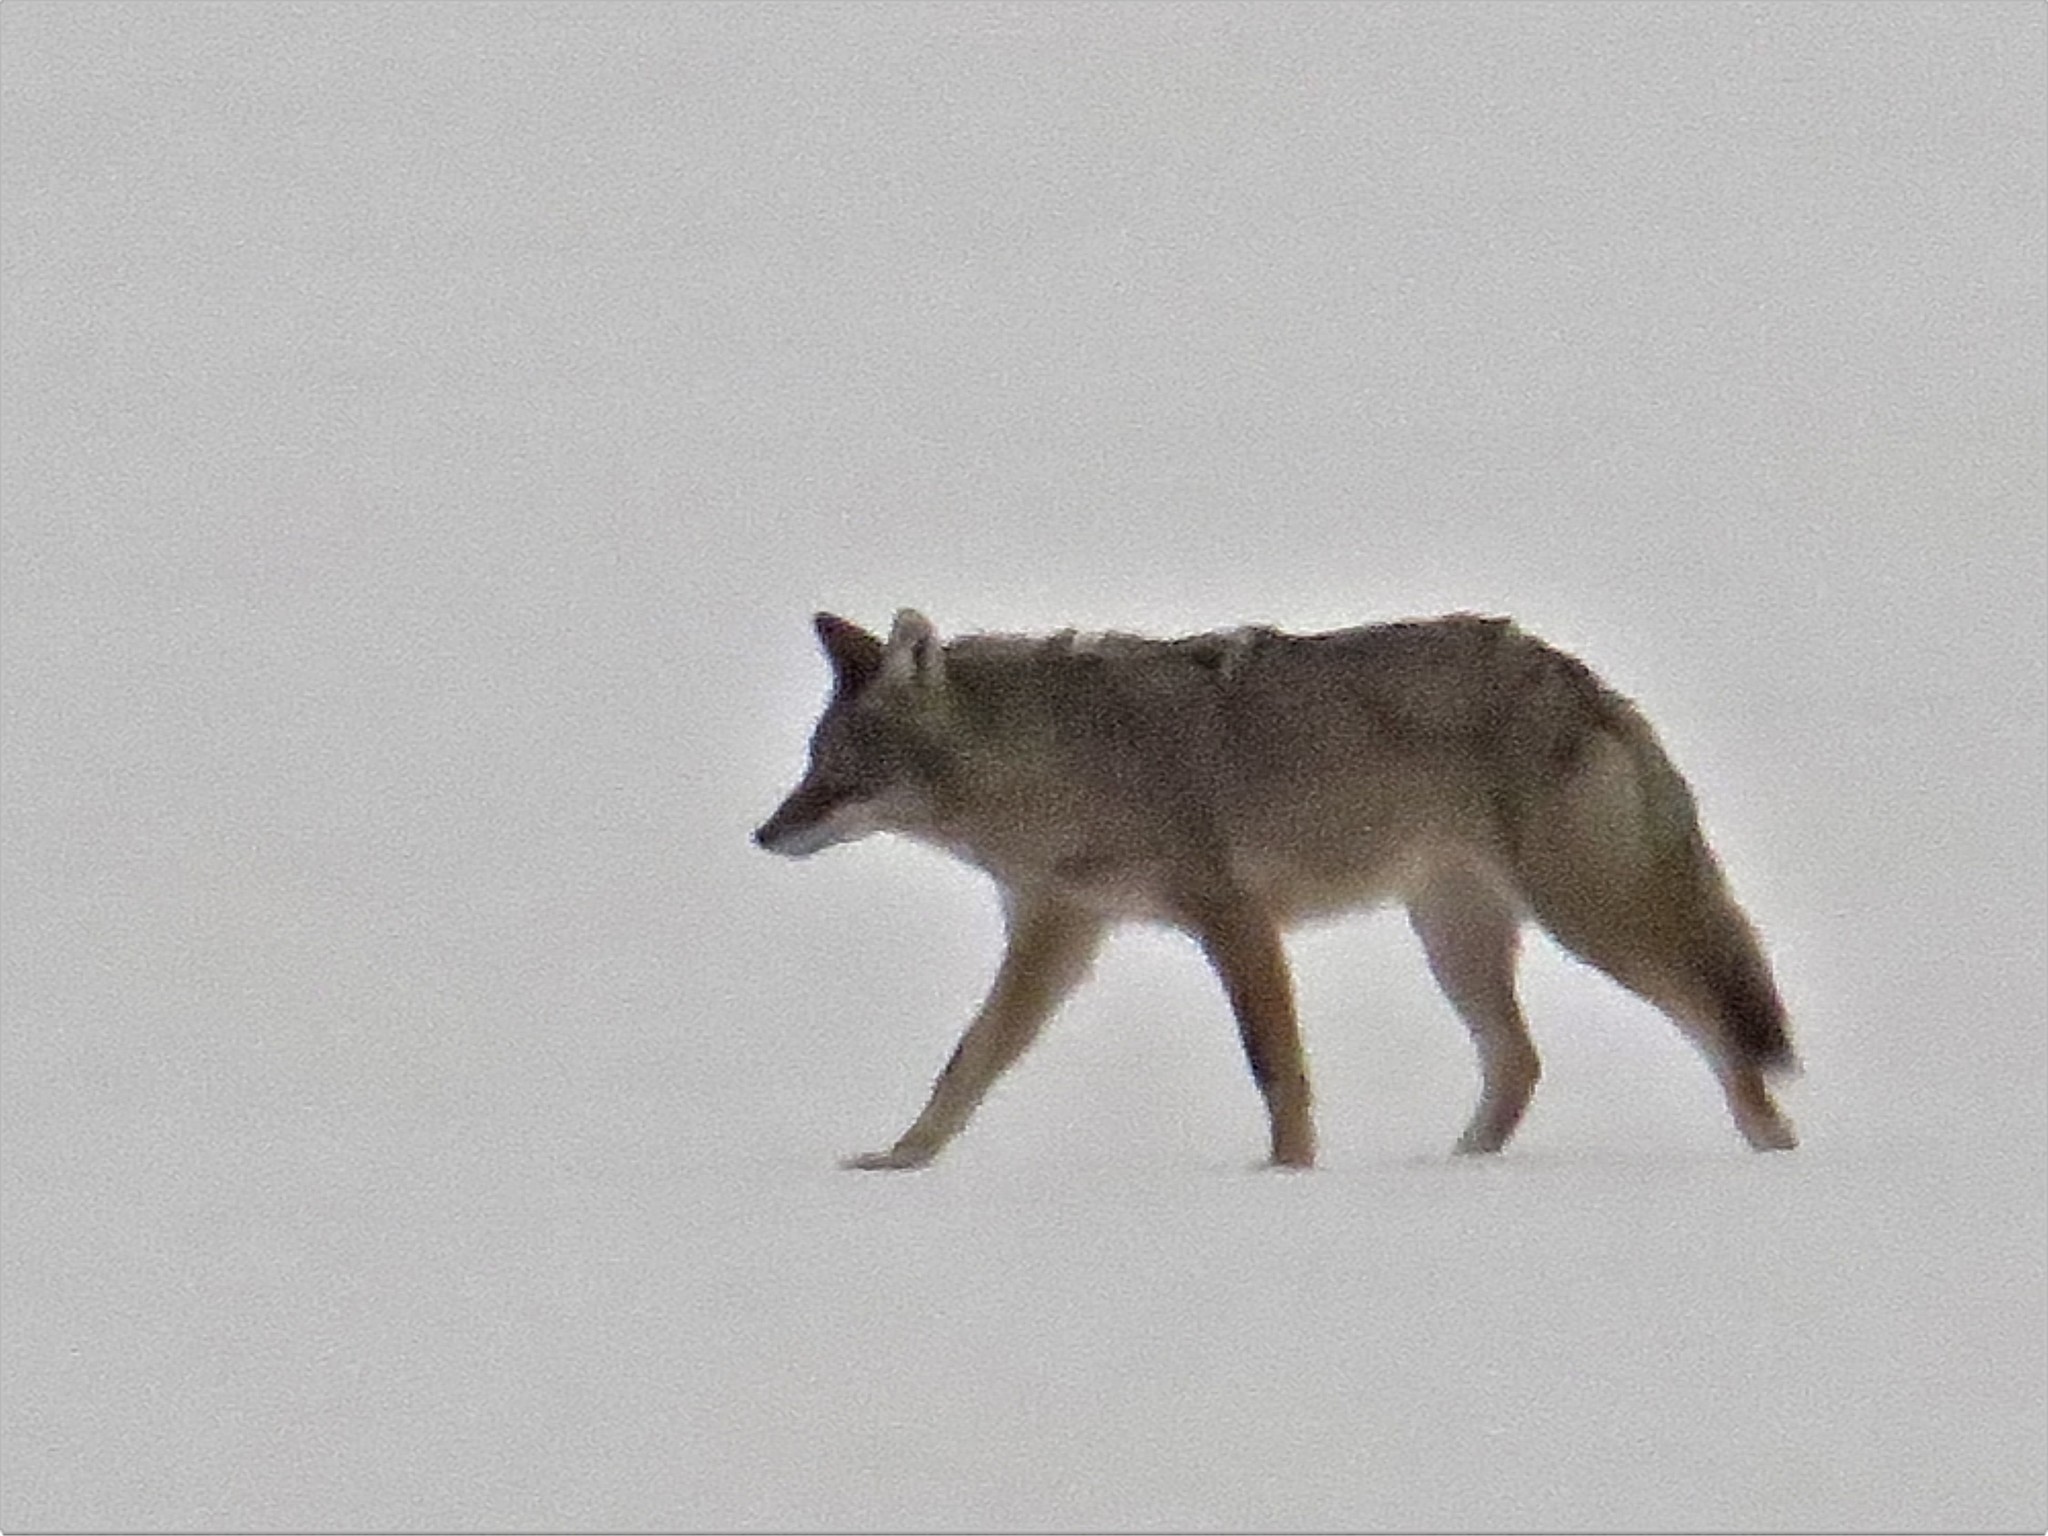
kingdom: Animalia
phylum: Chordata
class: Mammalia
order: Carnivora
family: Canidae
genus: Canis
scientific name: Canis latrans
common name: Coyote
